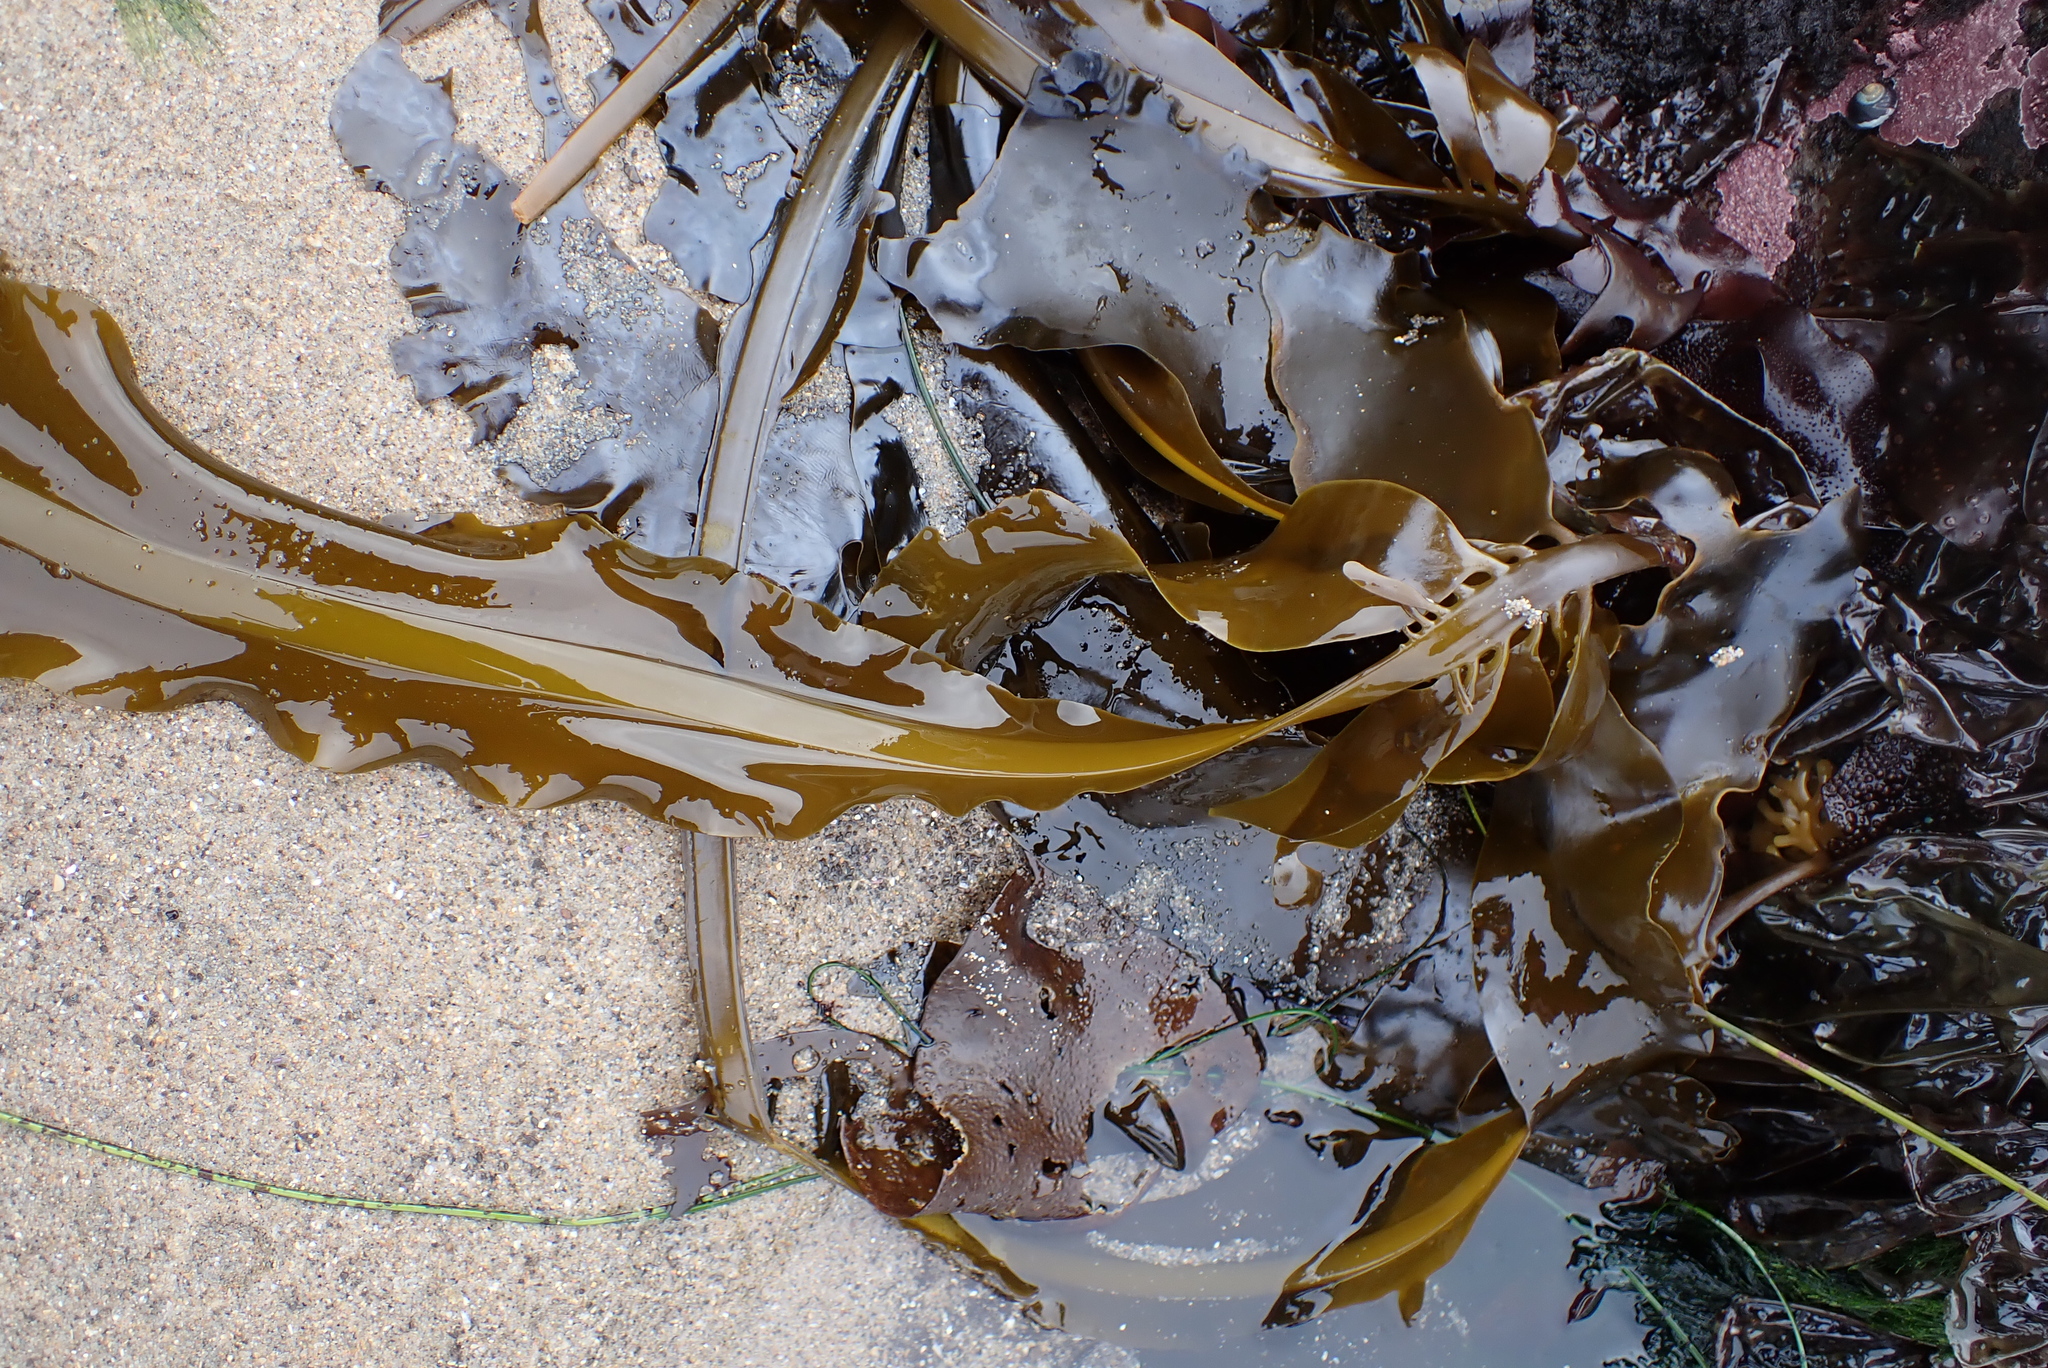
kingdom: Chromista
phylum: Ochrophyta
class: Phaeophyceae
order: Laminariales
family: Alariaceae
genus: Alaria
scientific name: Alaria marginata
